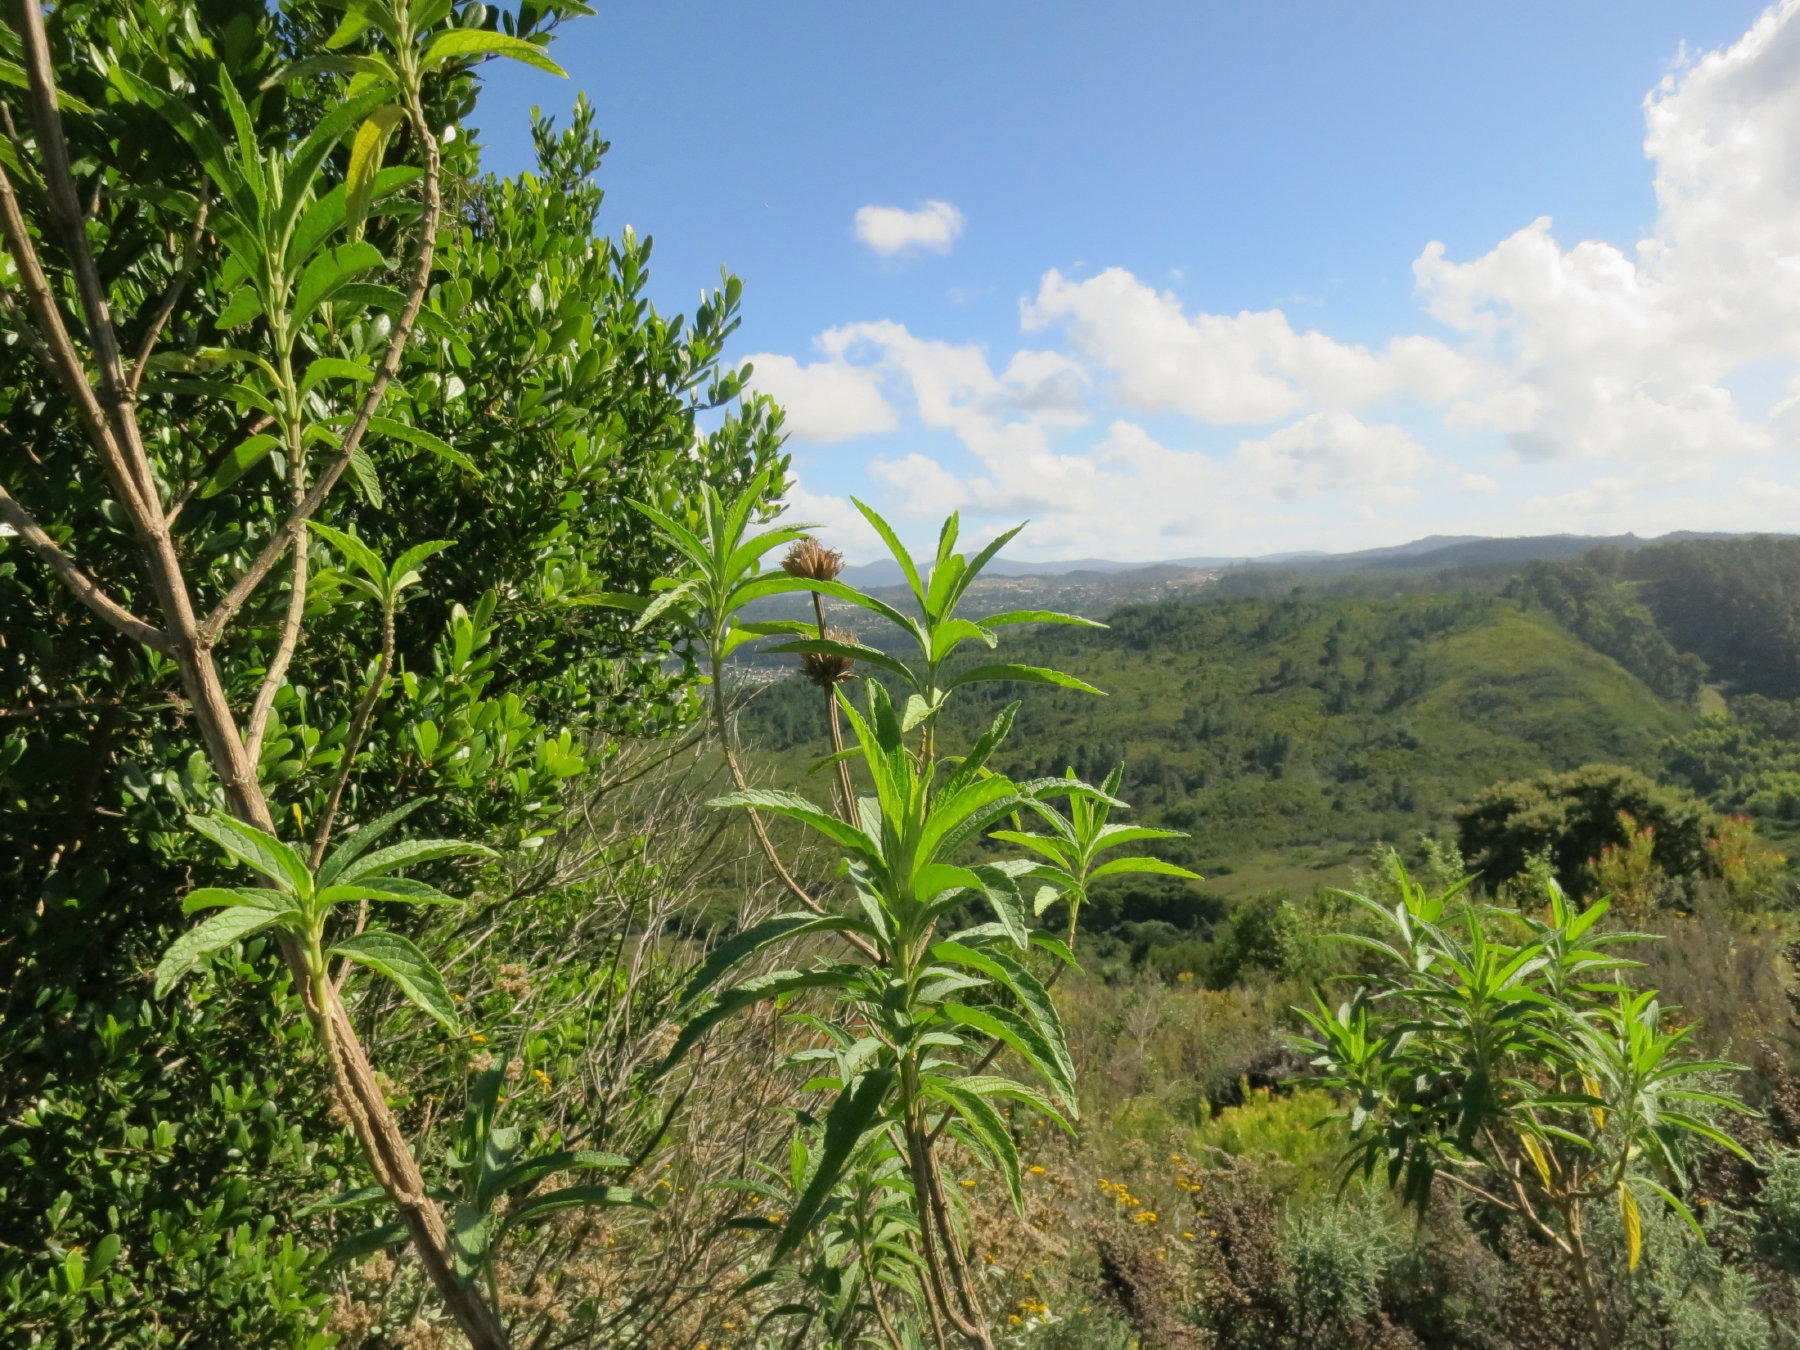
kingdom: Plantae
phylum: Tracheophyta
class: Magnoliopsida
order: Lamiales
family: Lamiaceae
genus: Leonotis
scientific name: Leonotis leonurus
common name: Lion's ear
